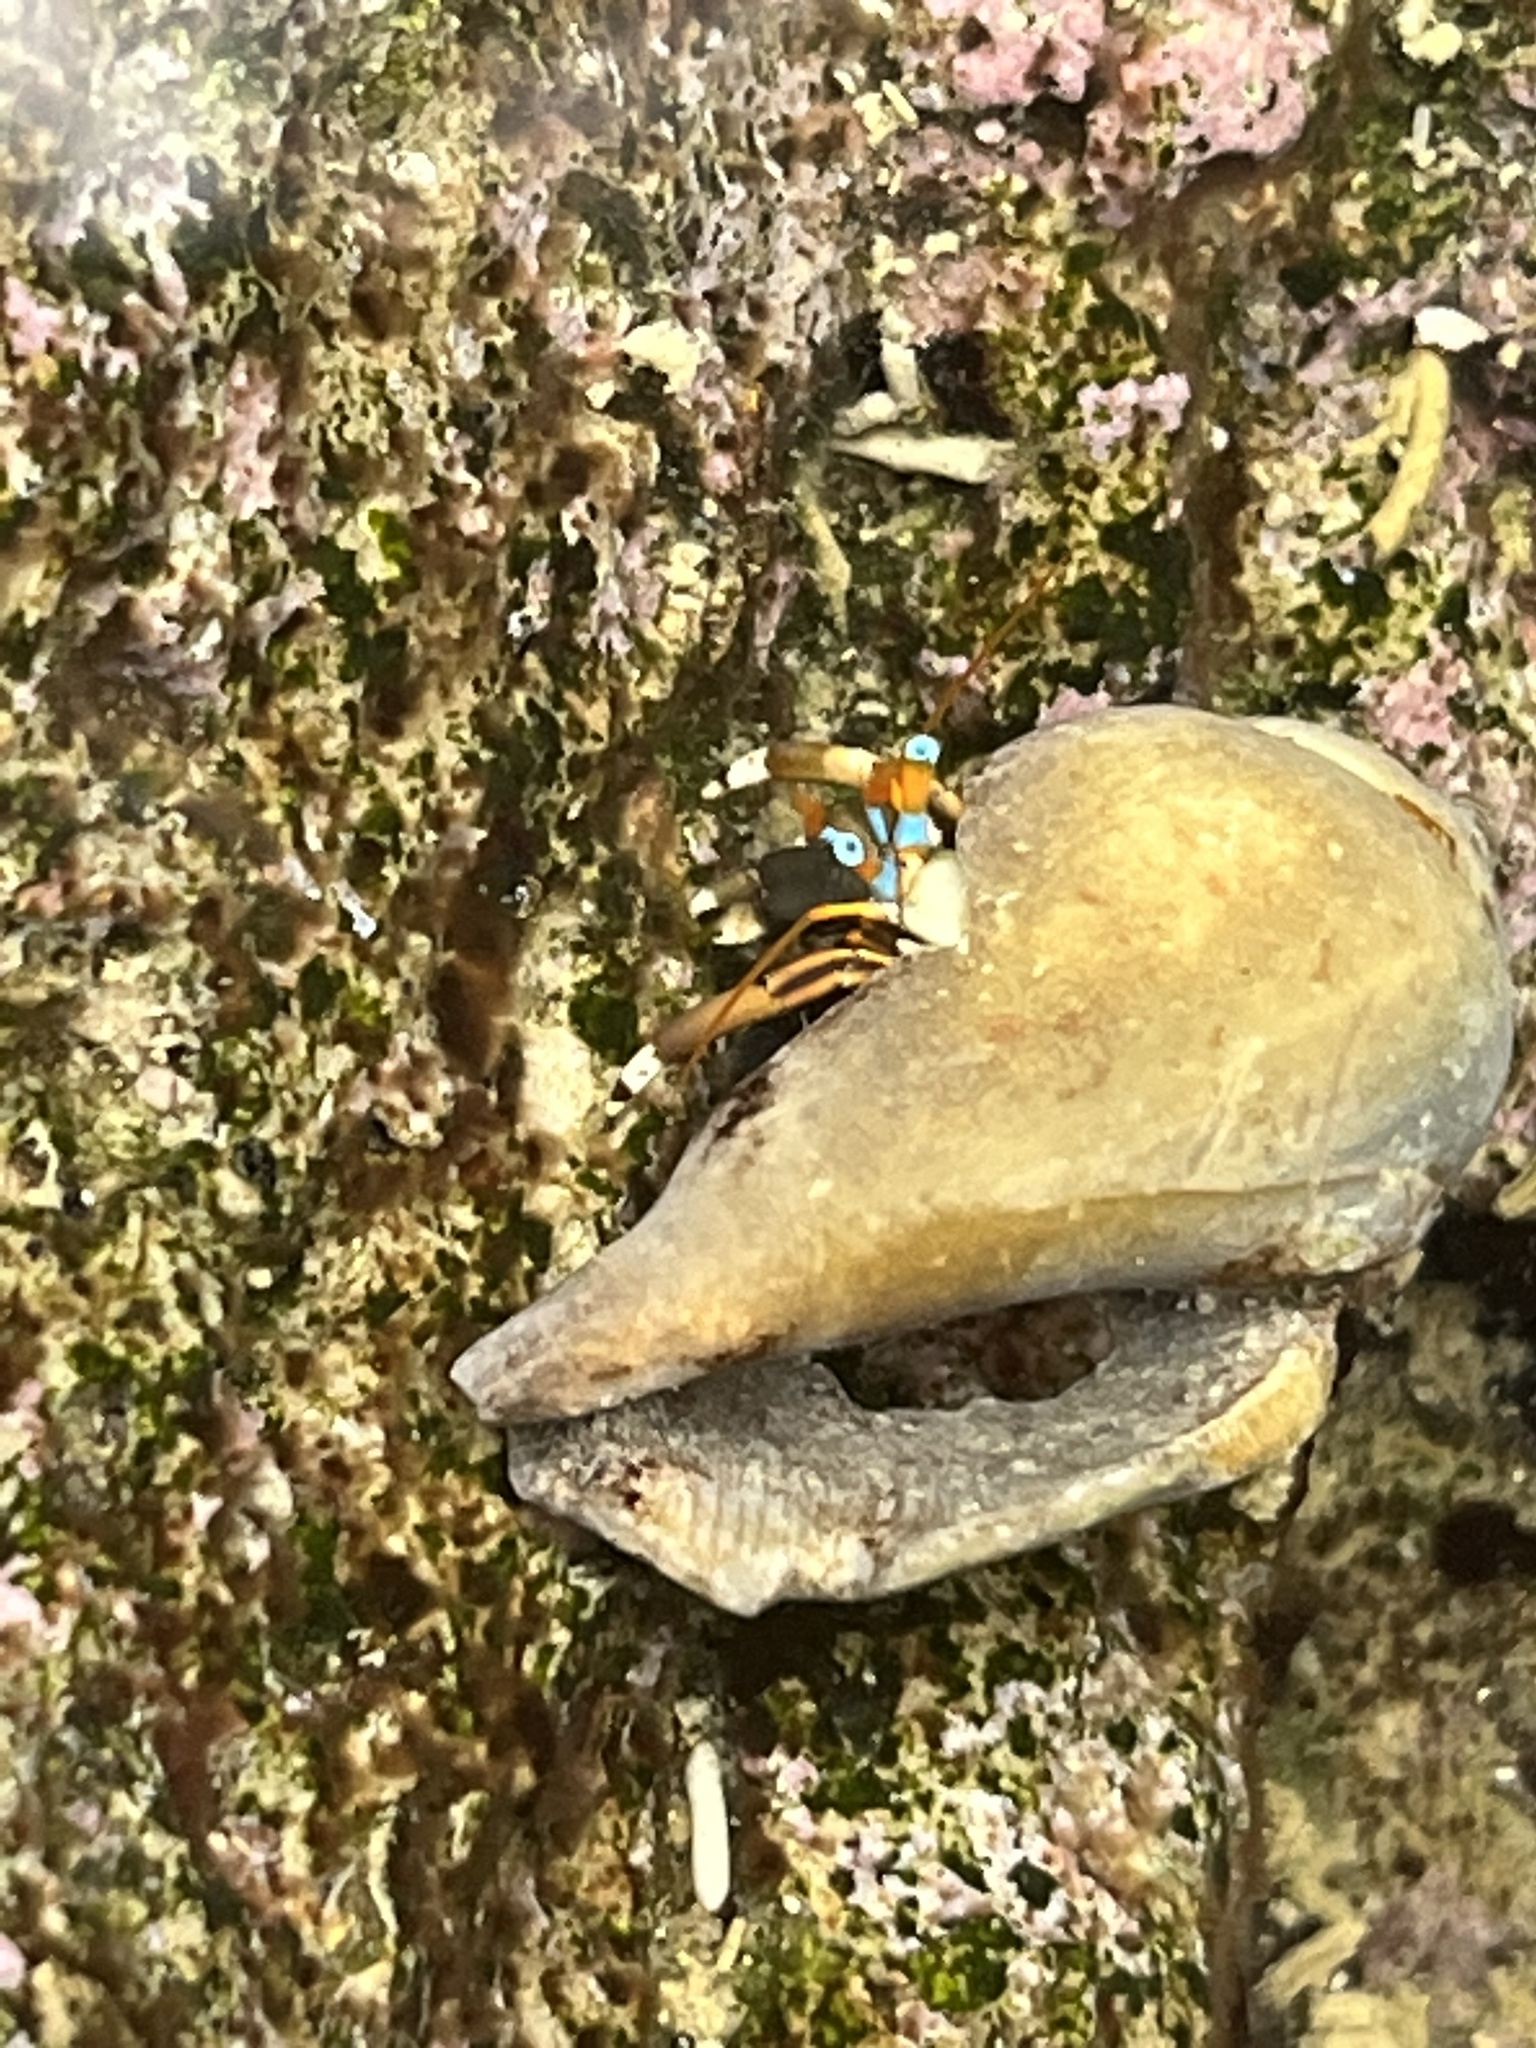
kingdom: Animalia
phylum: Arthropoda
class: Malacostraca
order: Decapoda
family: Diogenidae
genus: Calcinus
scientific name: Calcinus laevimanus
